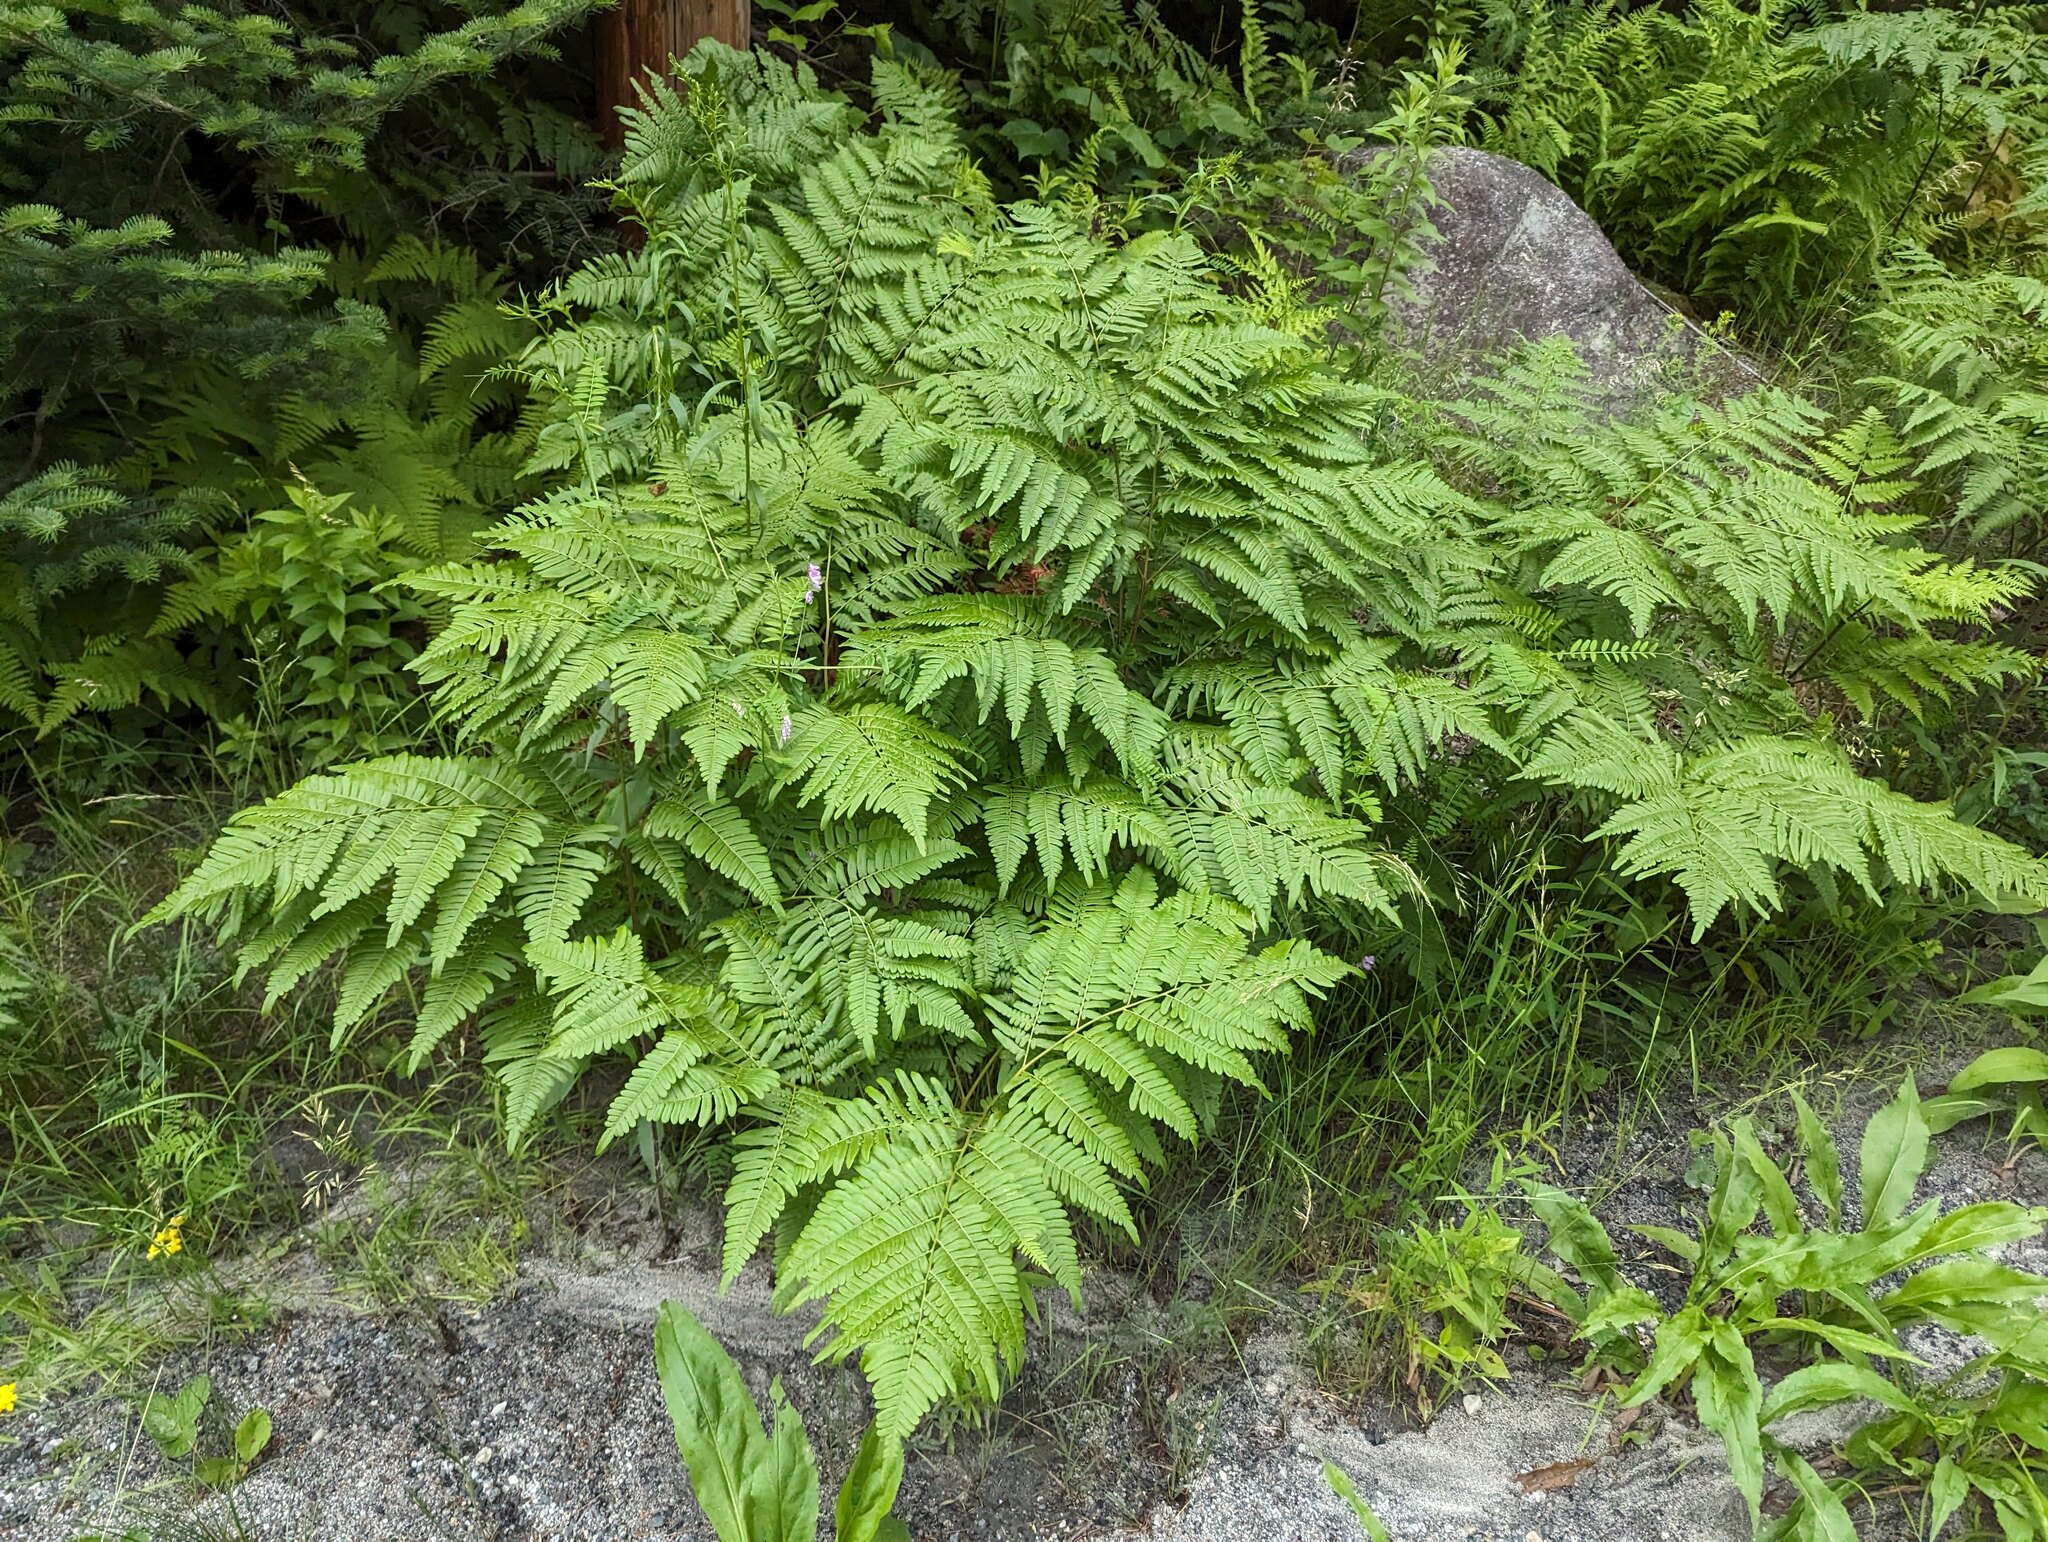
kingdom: Plantae
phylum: Tracheophyta
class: Polypodiopsida
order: Polypodiales
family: Dennstaedtiaceae
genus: Pteridium
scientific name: Pteridium aquilinum
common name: Bracken
